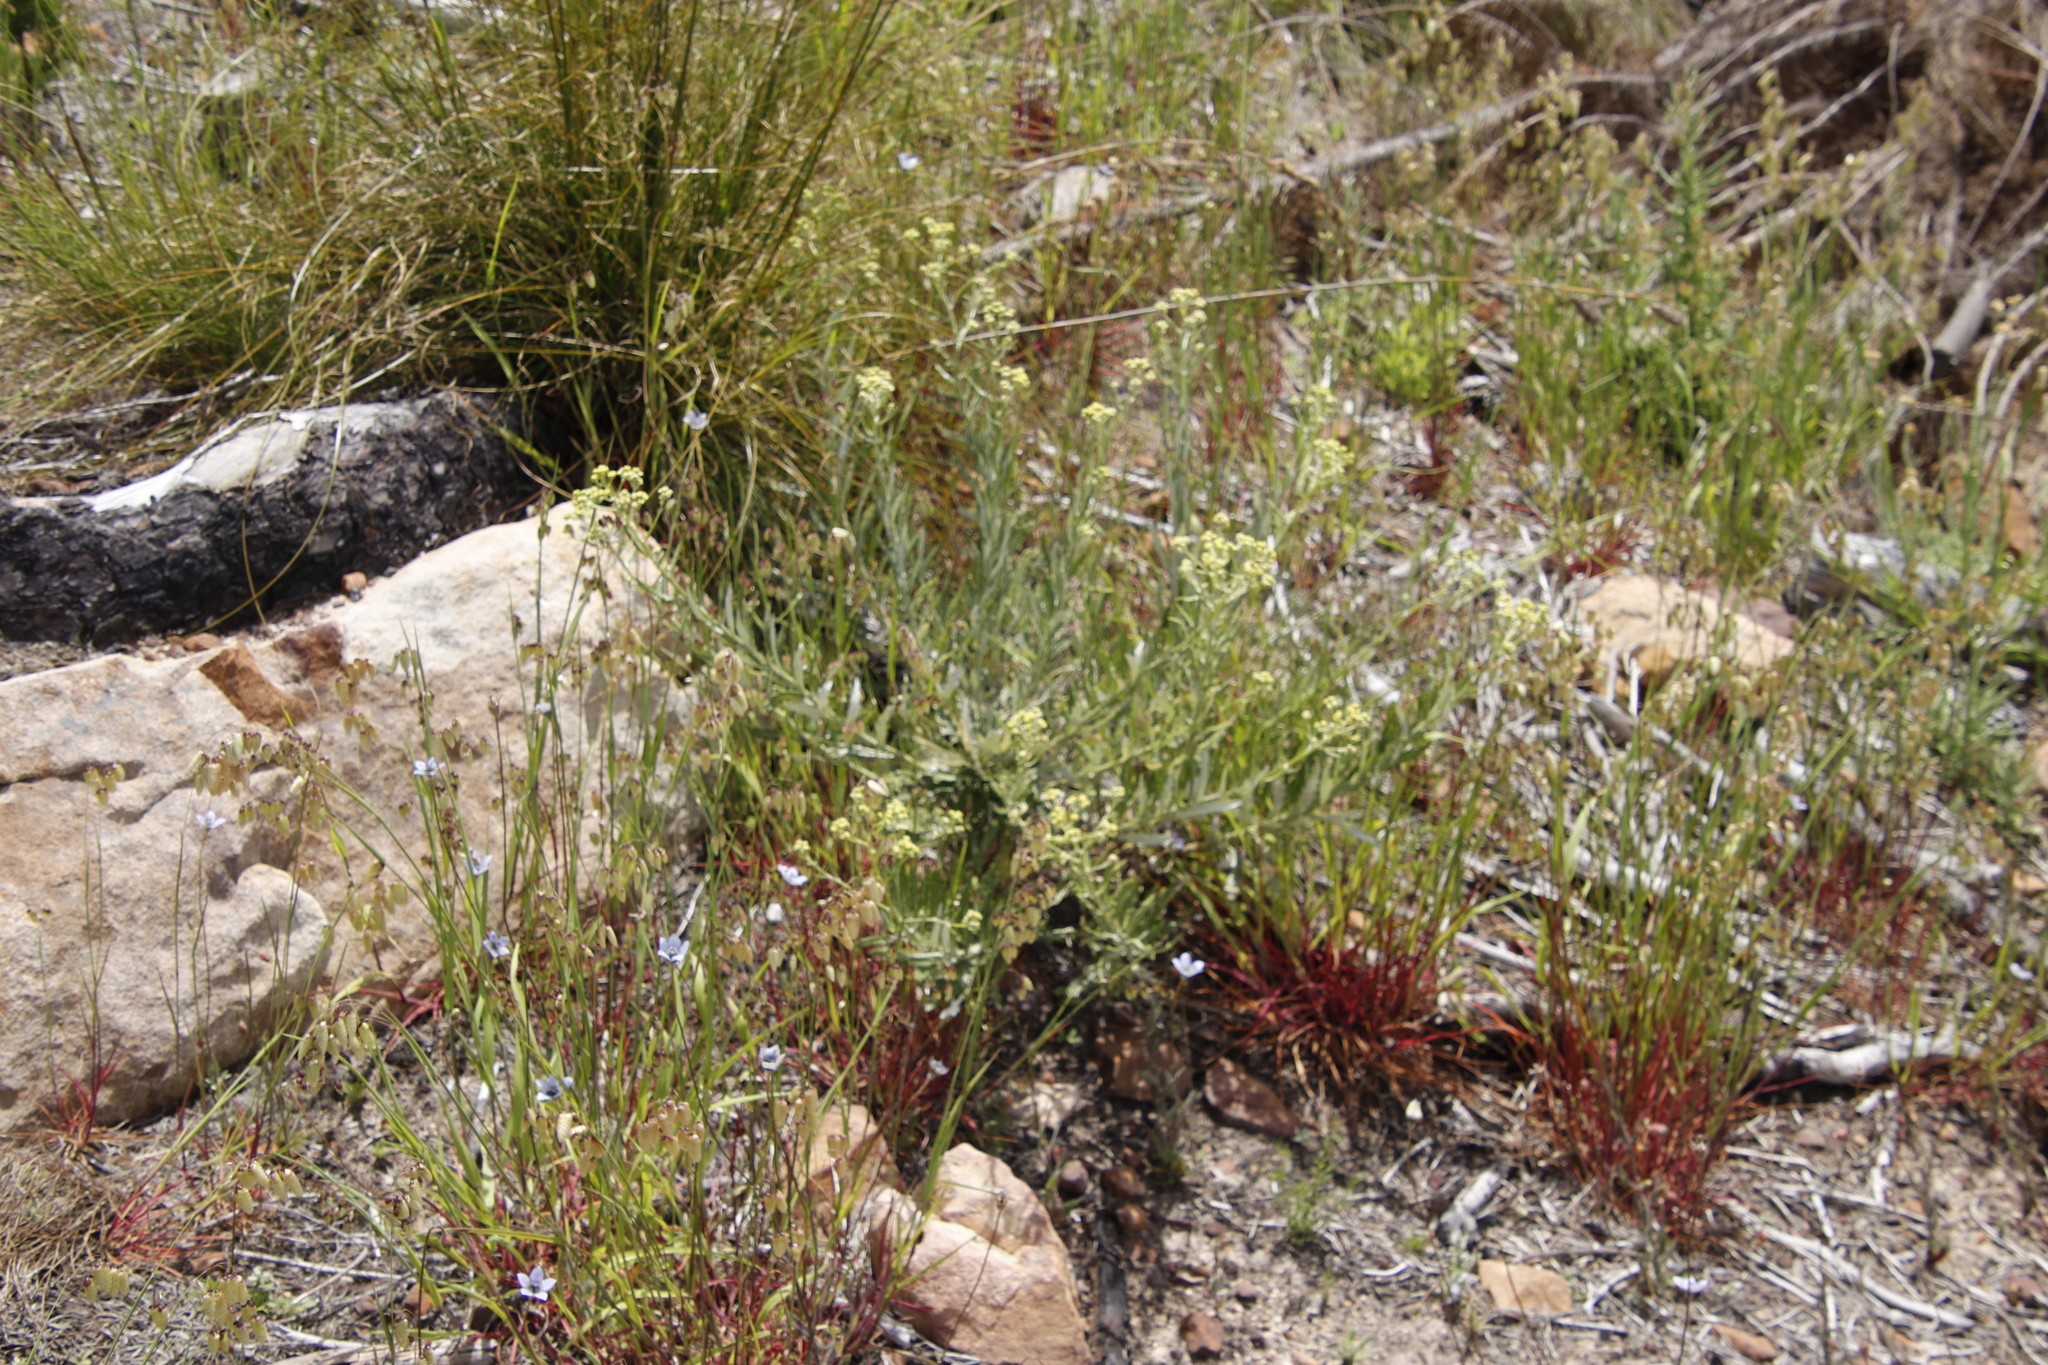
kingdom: Plantae
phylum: Tracheophyta
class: Magnoliopsida
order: Asterales
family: Asteraceae
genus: Senecio
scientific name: Senecio pterophorus
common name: Shoddy ragwort
